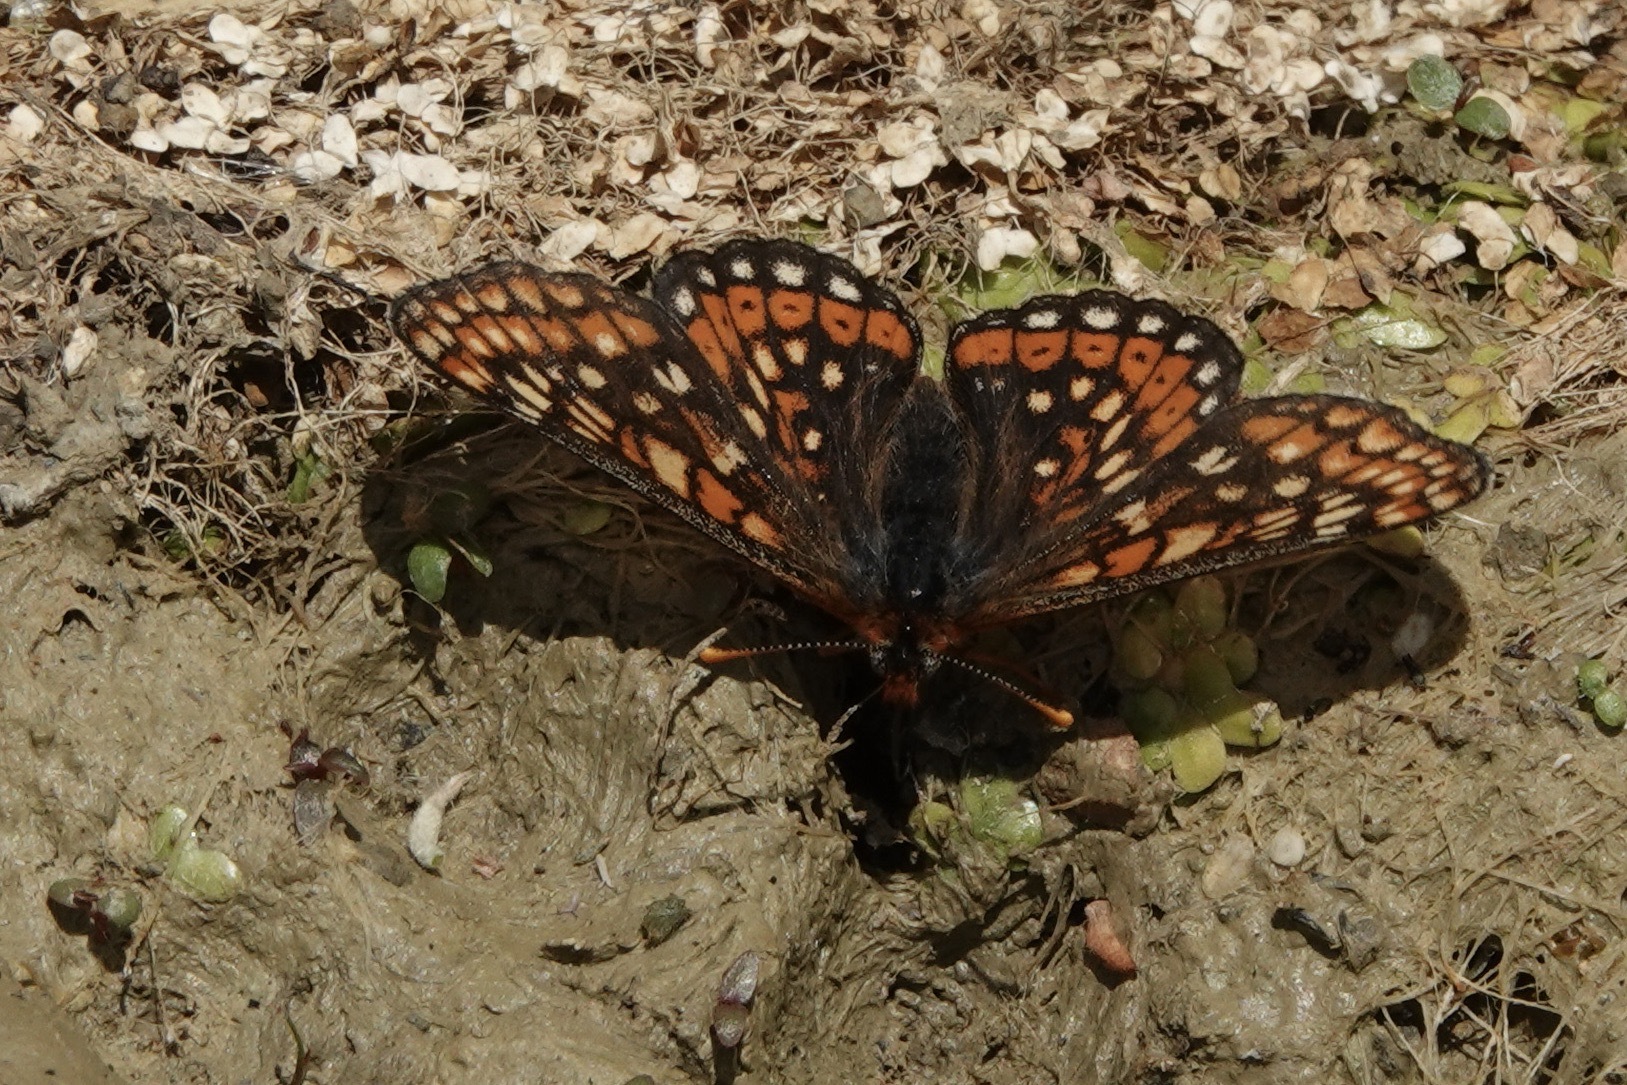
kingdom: Animalia
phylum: Arthropoda
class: Insecta
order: Lepidoptera
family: Nymphalidae
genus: Euphydryas
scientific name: Euphydryas aurinia
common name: Marsh fritillary
